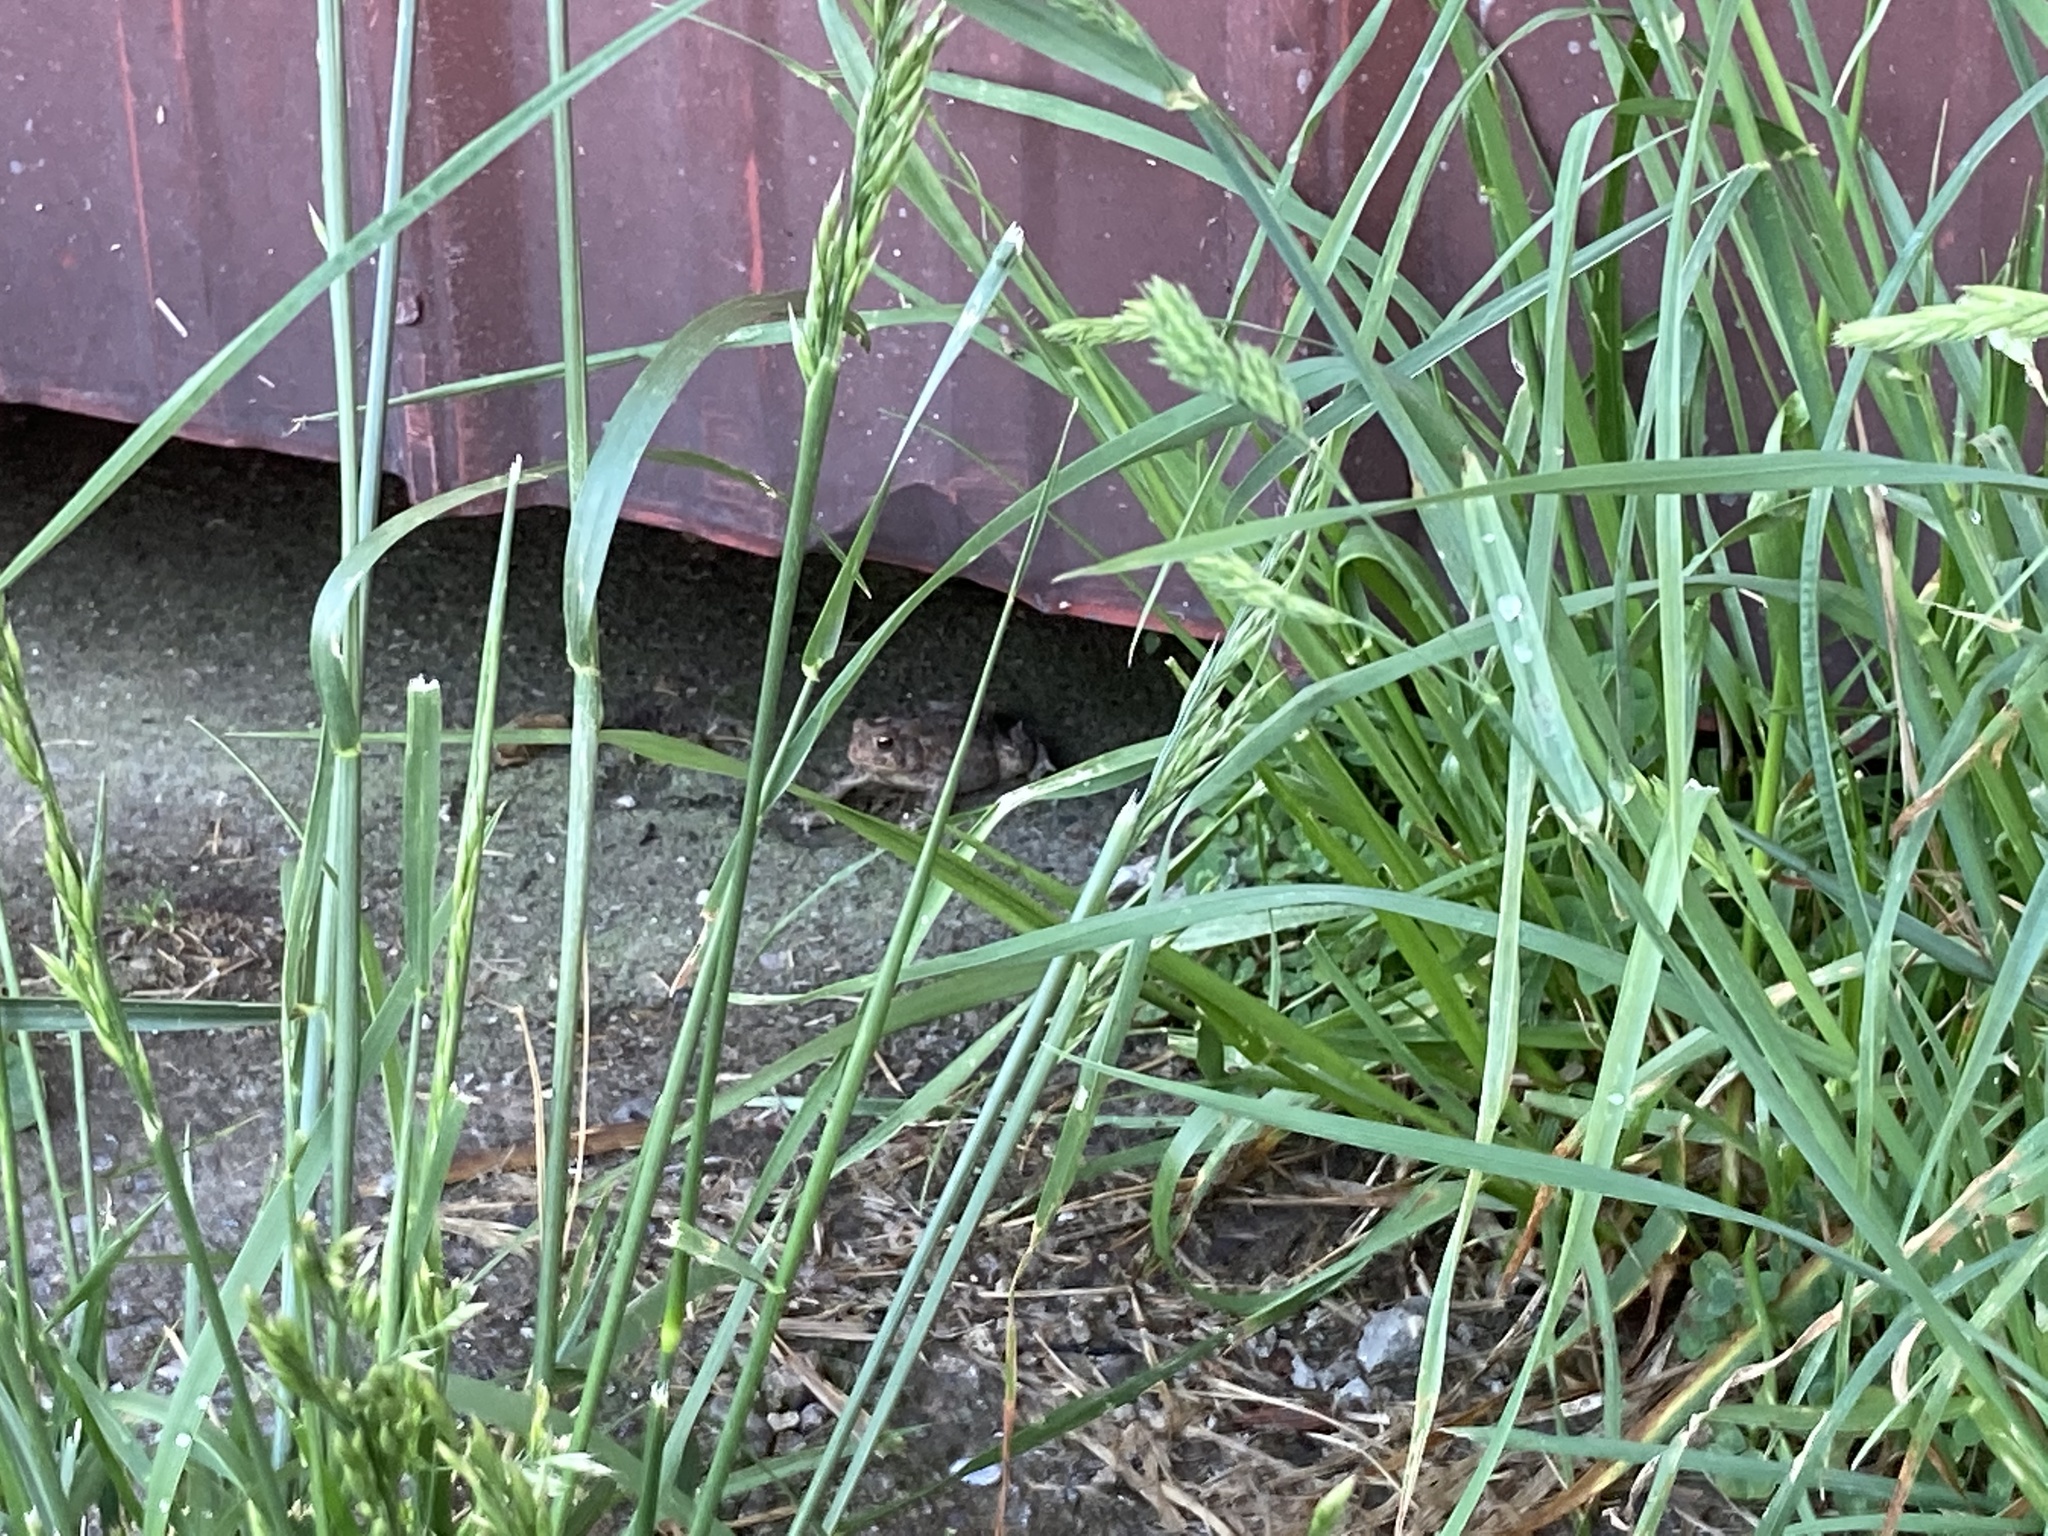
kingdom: Animalia
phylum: Chordata
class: Amphibia
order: Anura
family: Bufonidae
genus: Anaxyrus
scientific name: Anaxyrus americanus
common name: American toad
